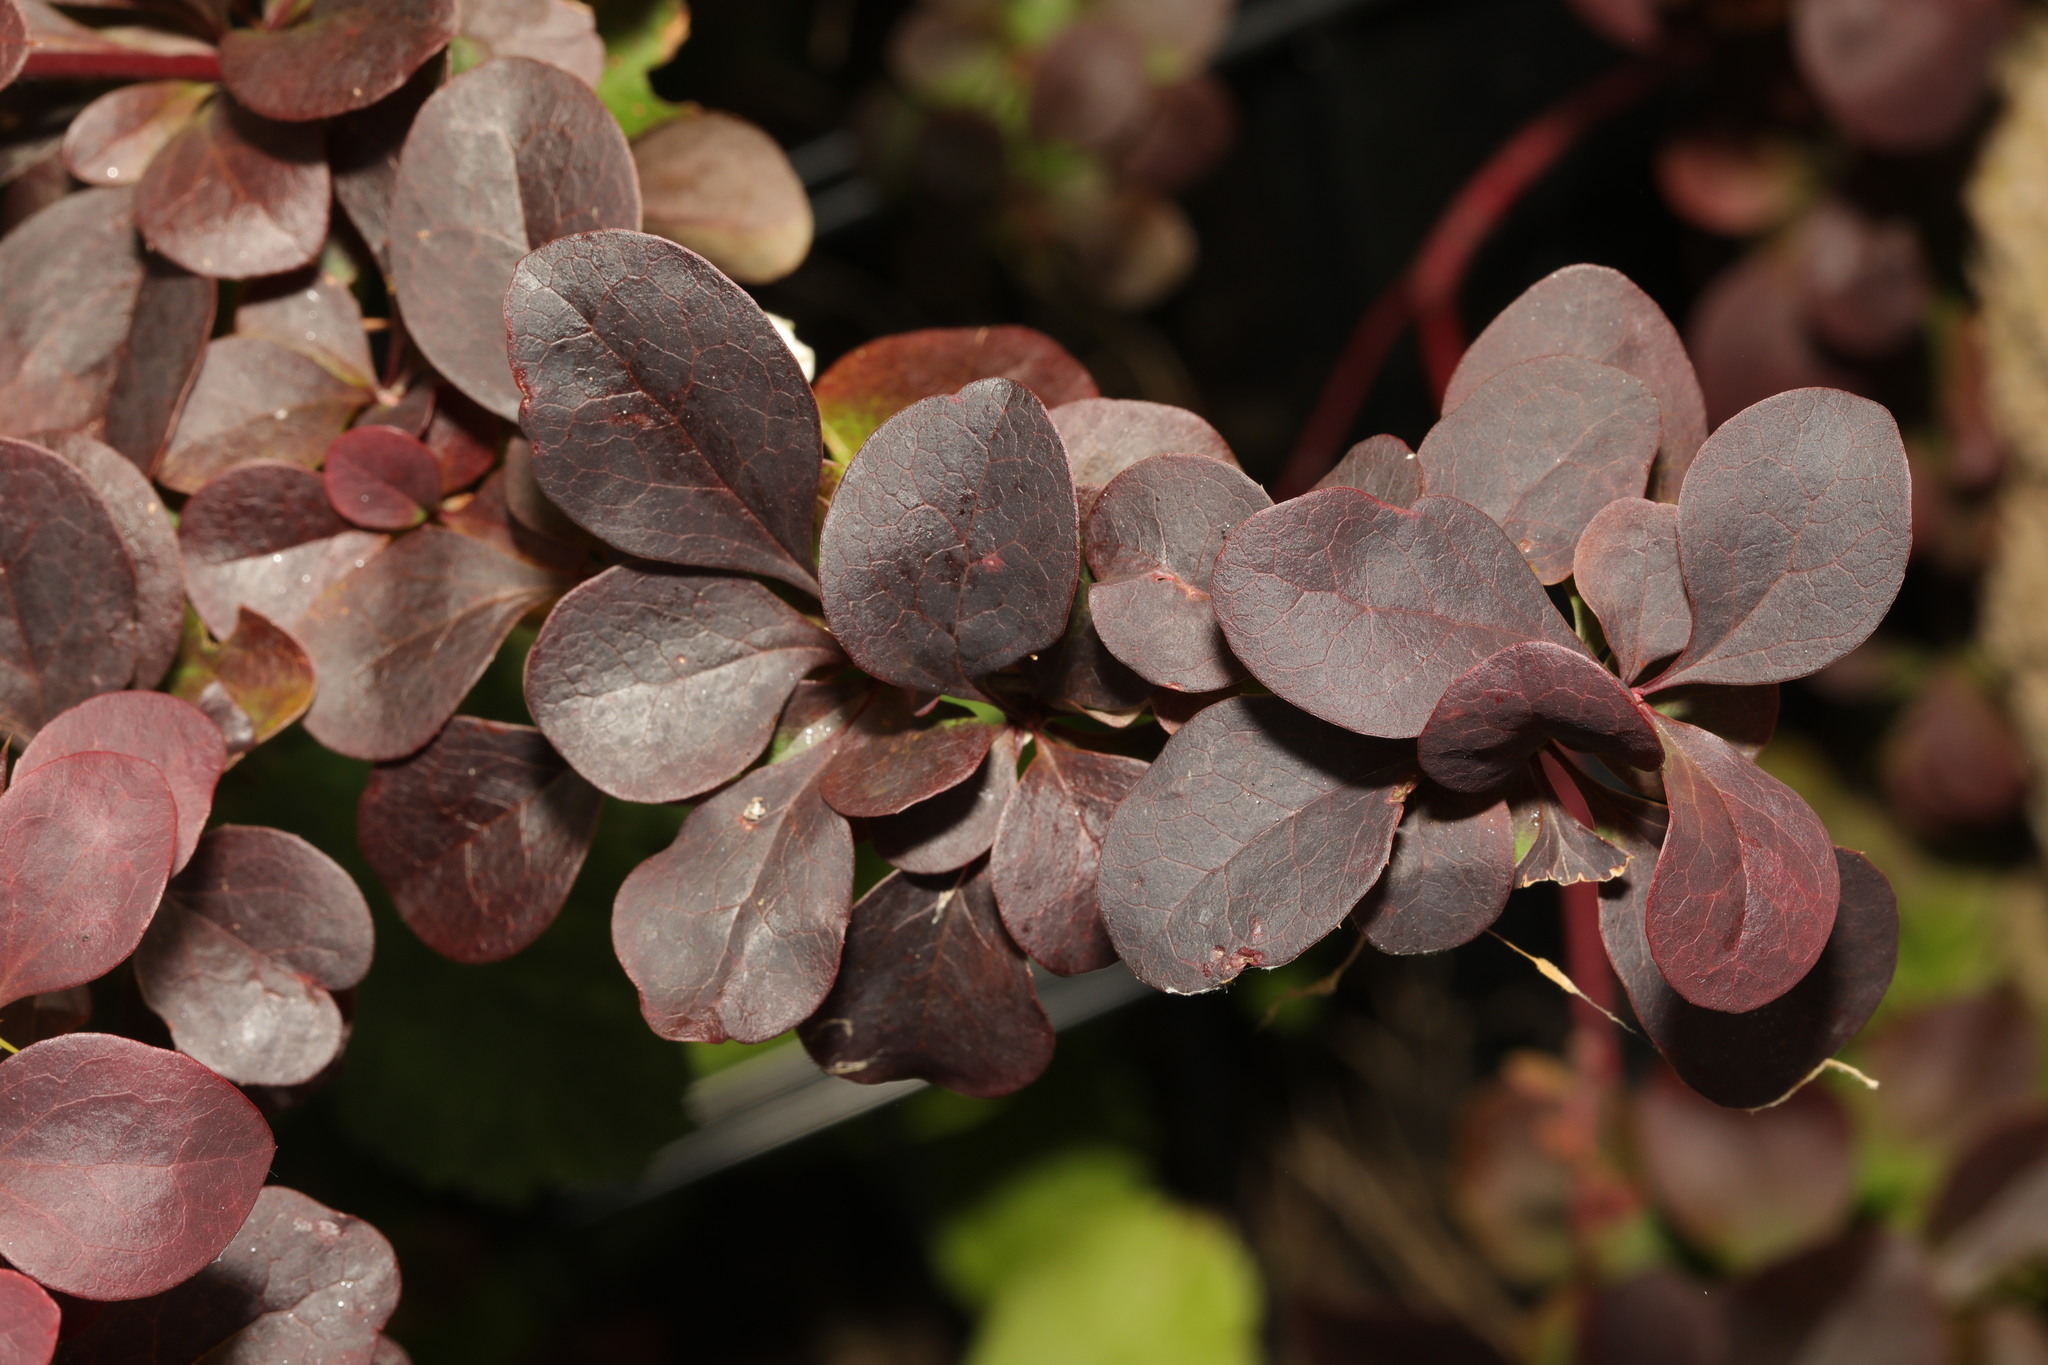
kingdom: Plantae
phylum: Tracheophyta
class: Magnoliopsida
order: Ranunculales
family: Berberidaceae
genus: Berberis
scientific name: Berberis thunbergii
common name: Japanese barberry
